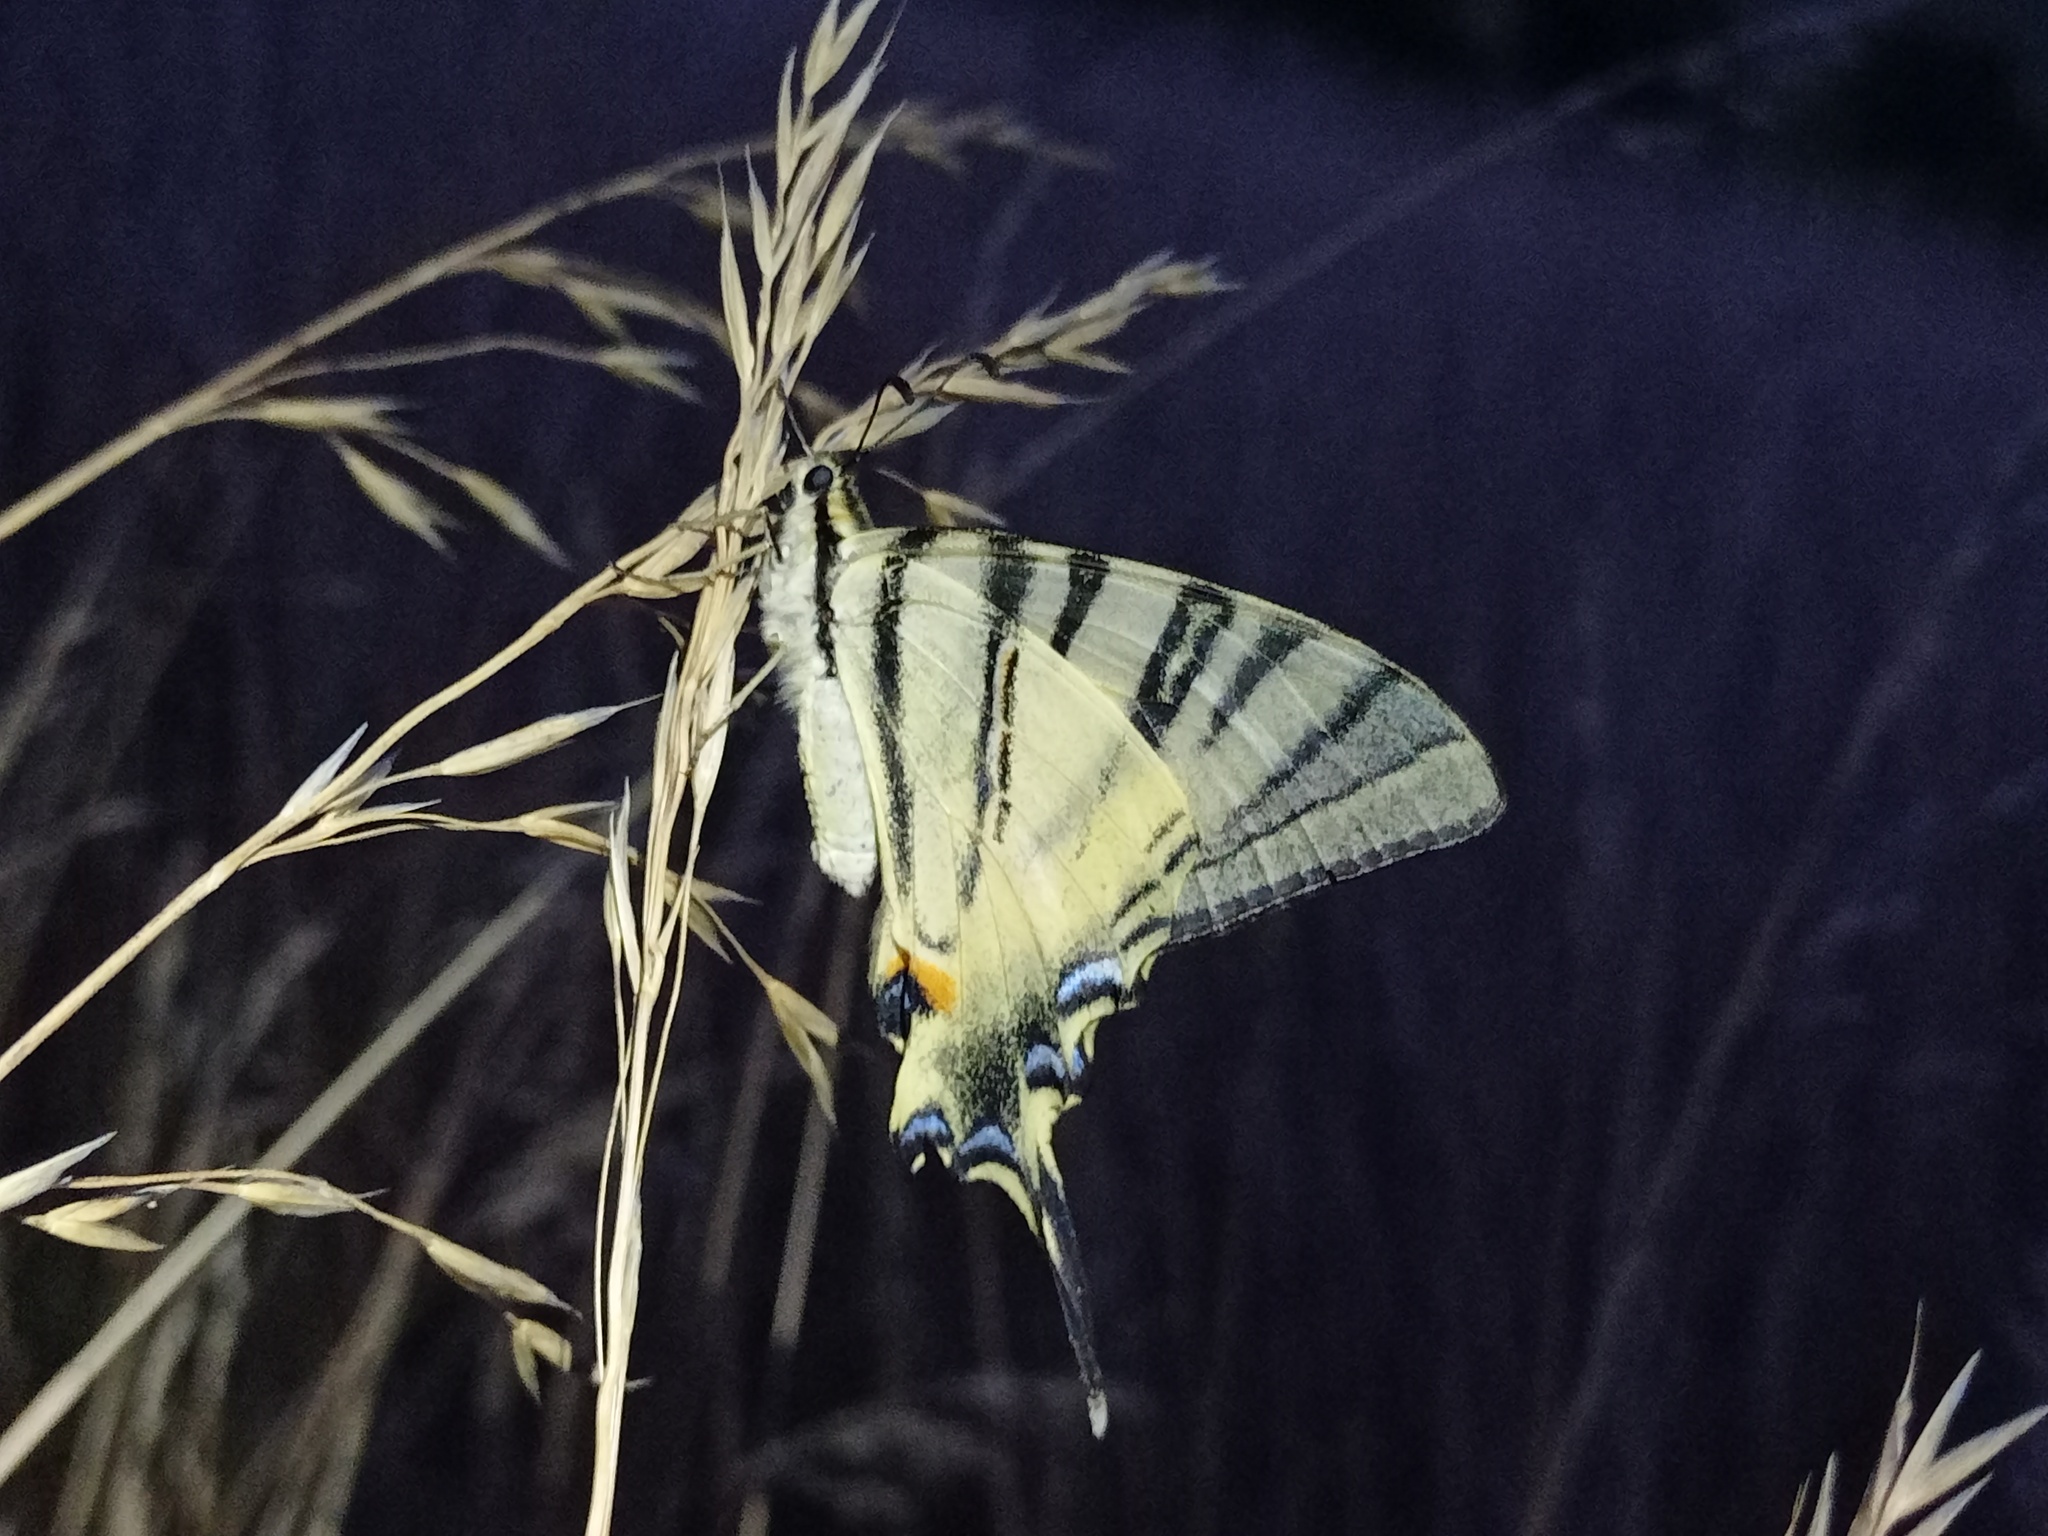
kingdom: Animalia
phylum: Arthropoda
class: Insecta
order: Lepidoptera
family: Papilionidae
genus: Iphiclides
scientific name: Iphiclides podalirius
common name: Scarce swallowtail
